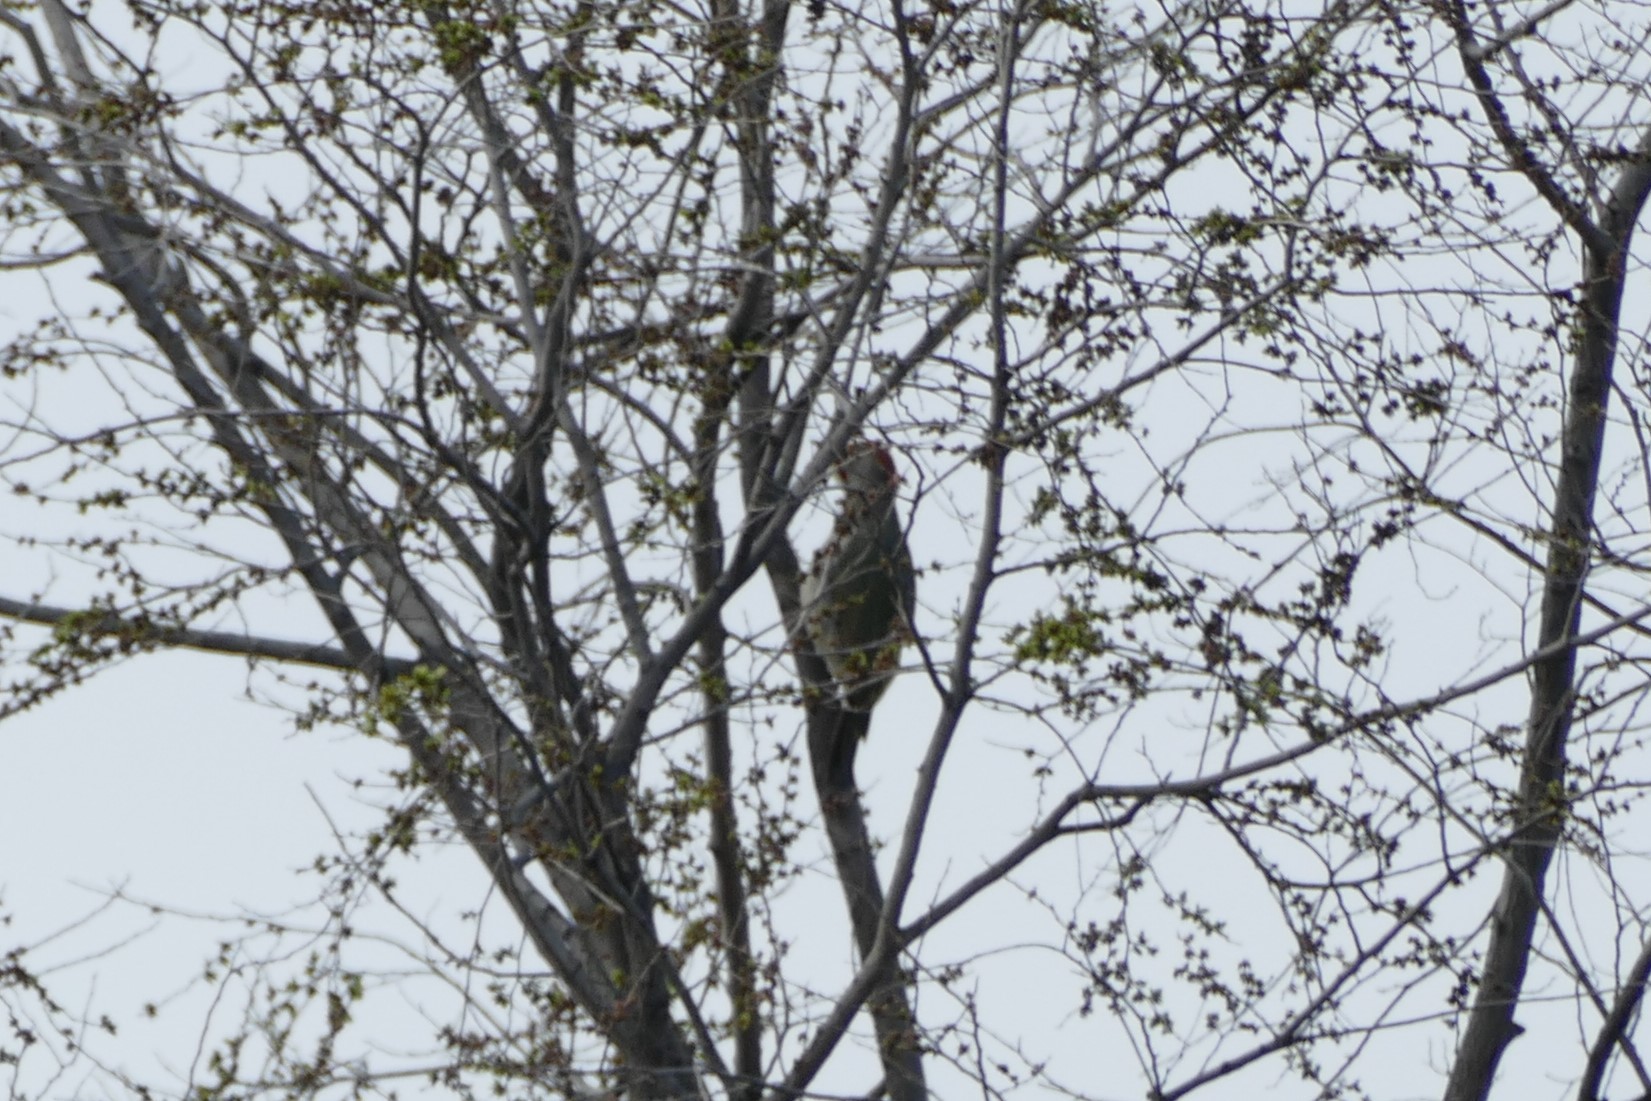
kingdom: Animalia
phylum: Chordata
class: Aves
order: Piciformes
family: Picidae
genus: Picus
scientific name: Picus sharpei
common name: Iberian green woodpecker
